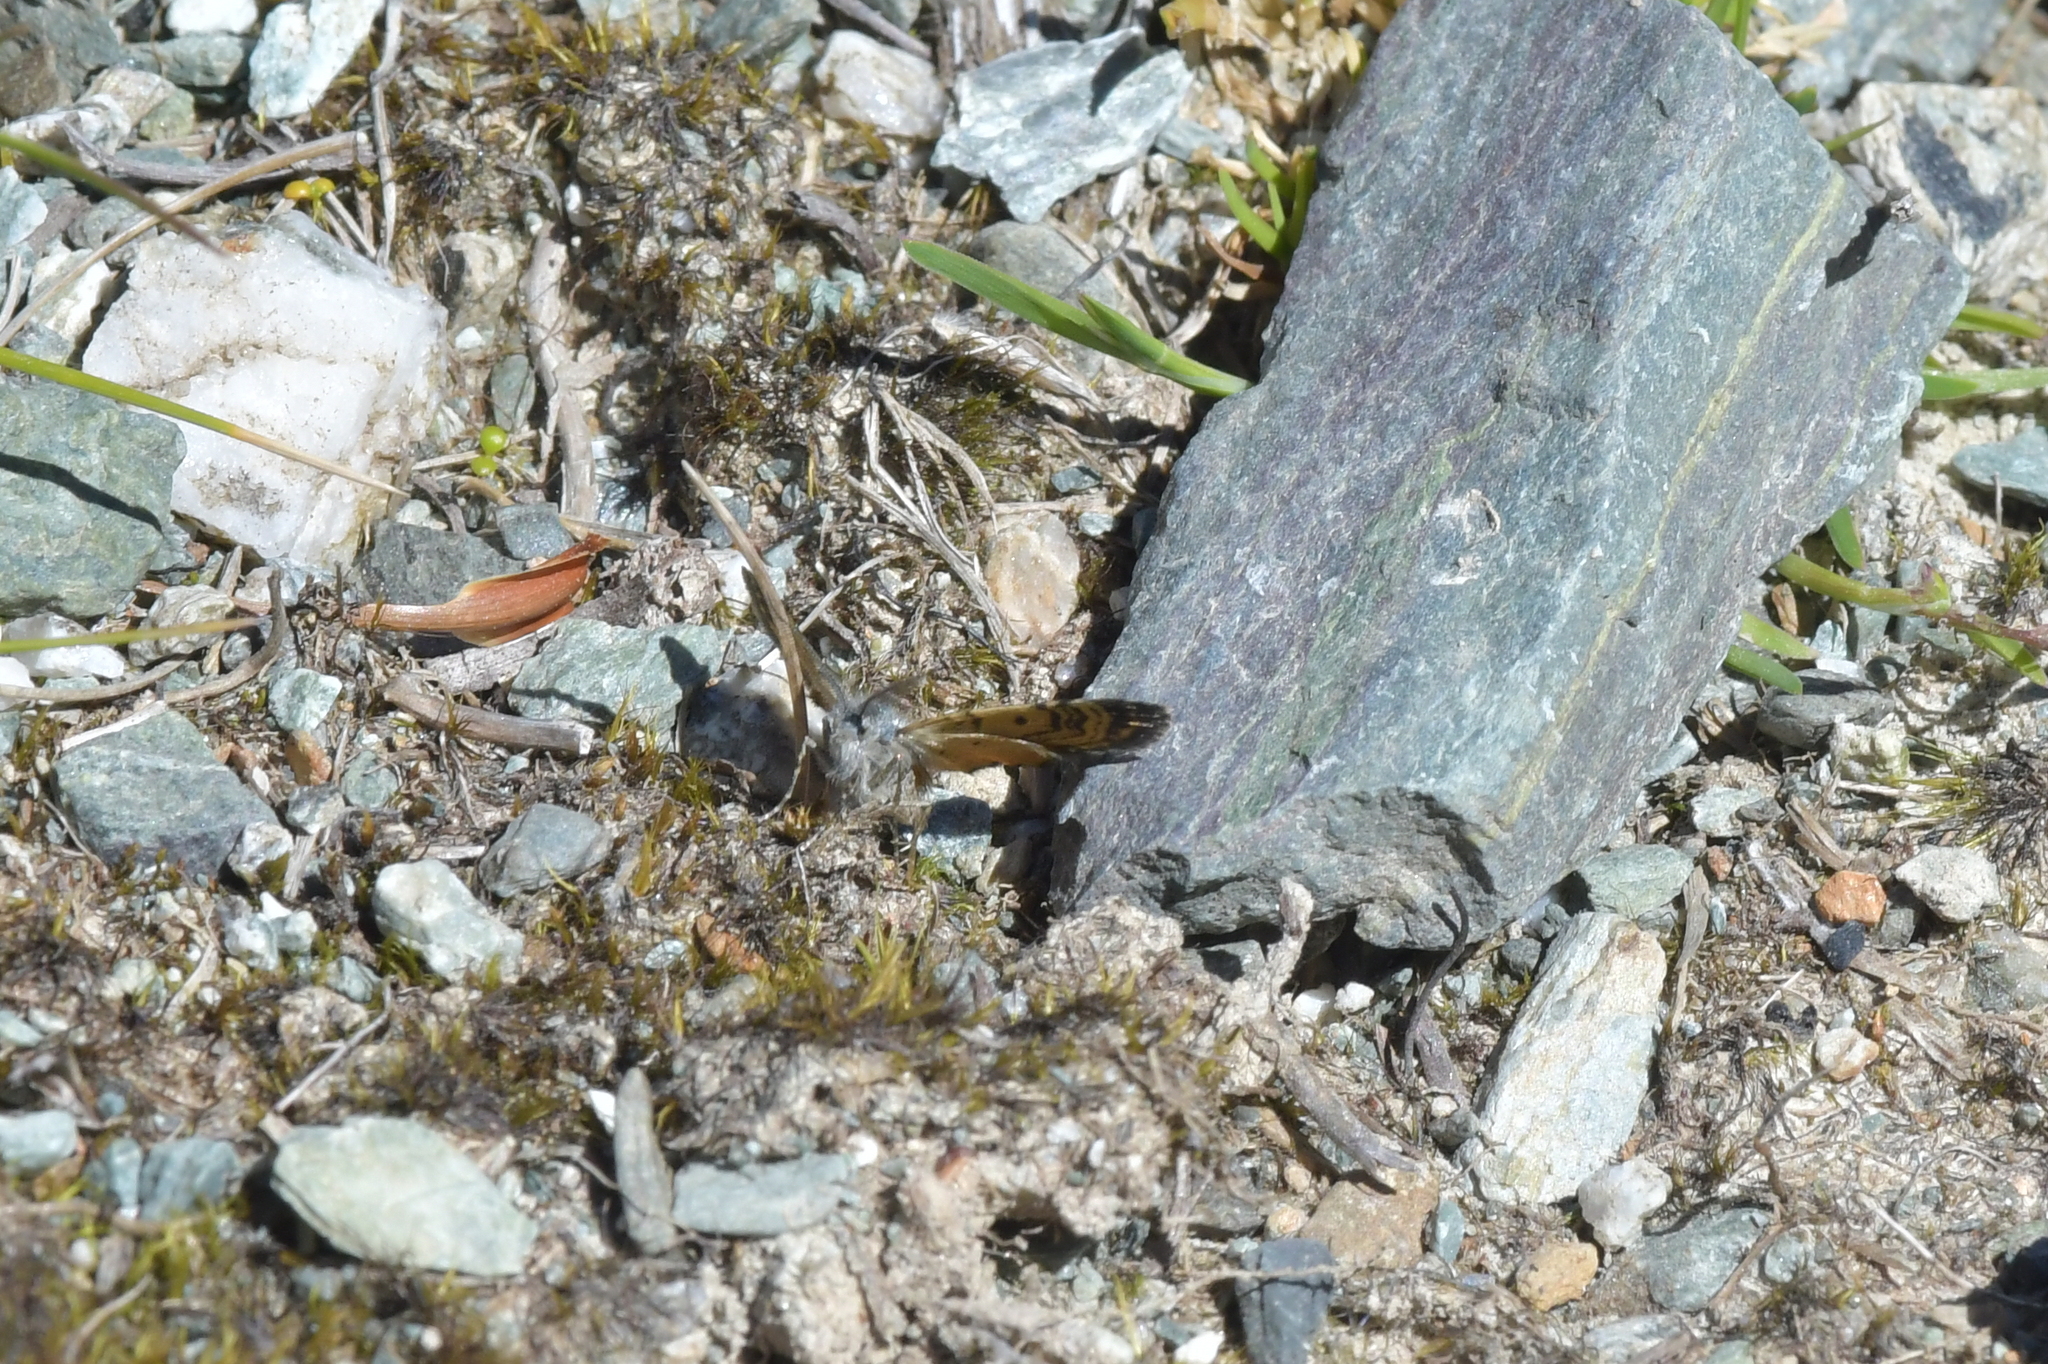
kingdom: Animalia
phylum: Arthropoda
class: Insecta
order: Lepidoptera
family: Geometridae
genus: Paranotoreas
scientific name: Paranotoreas zopyra
